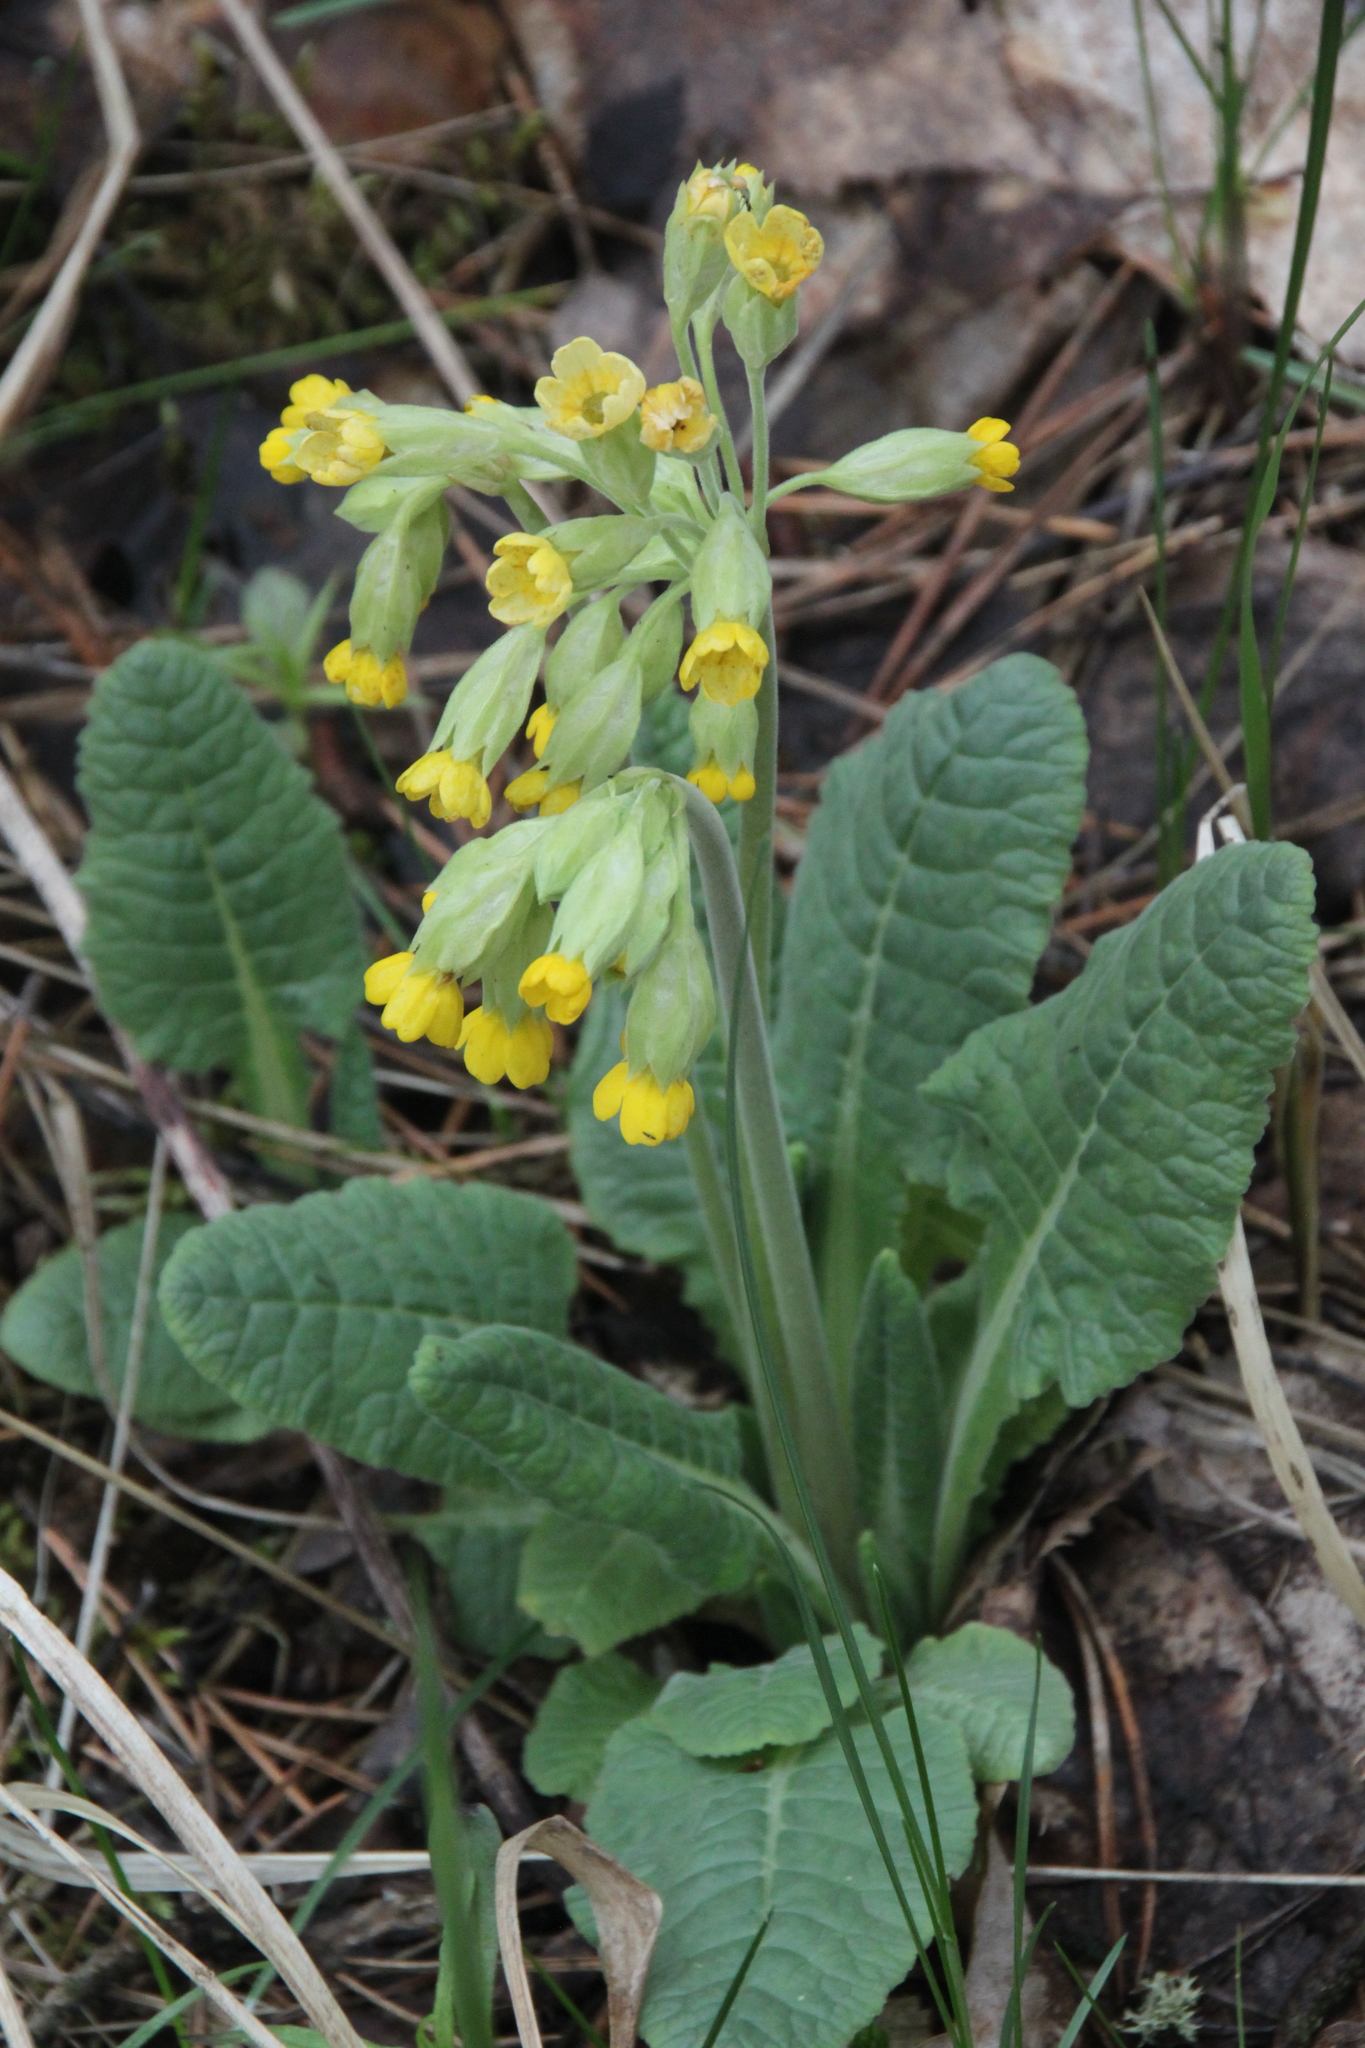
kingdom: Plantae
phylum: Tracheophyta
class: Magnoliopsida
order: Ericales
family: Primulaceae
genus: Primula
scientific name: Primula veris
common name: Cowslip
